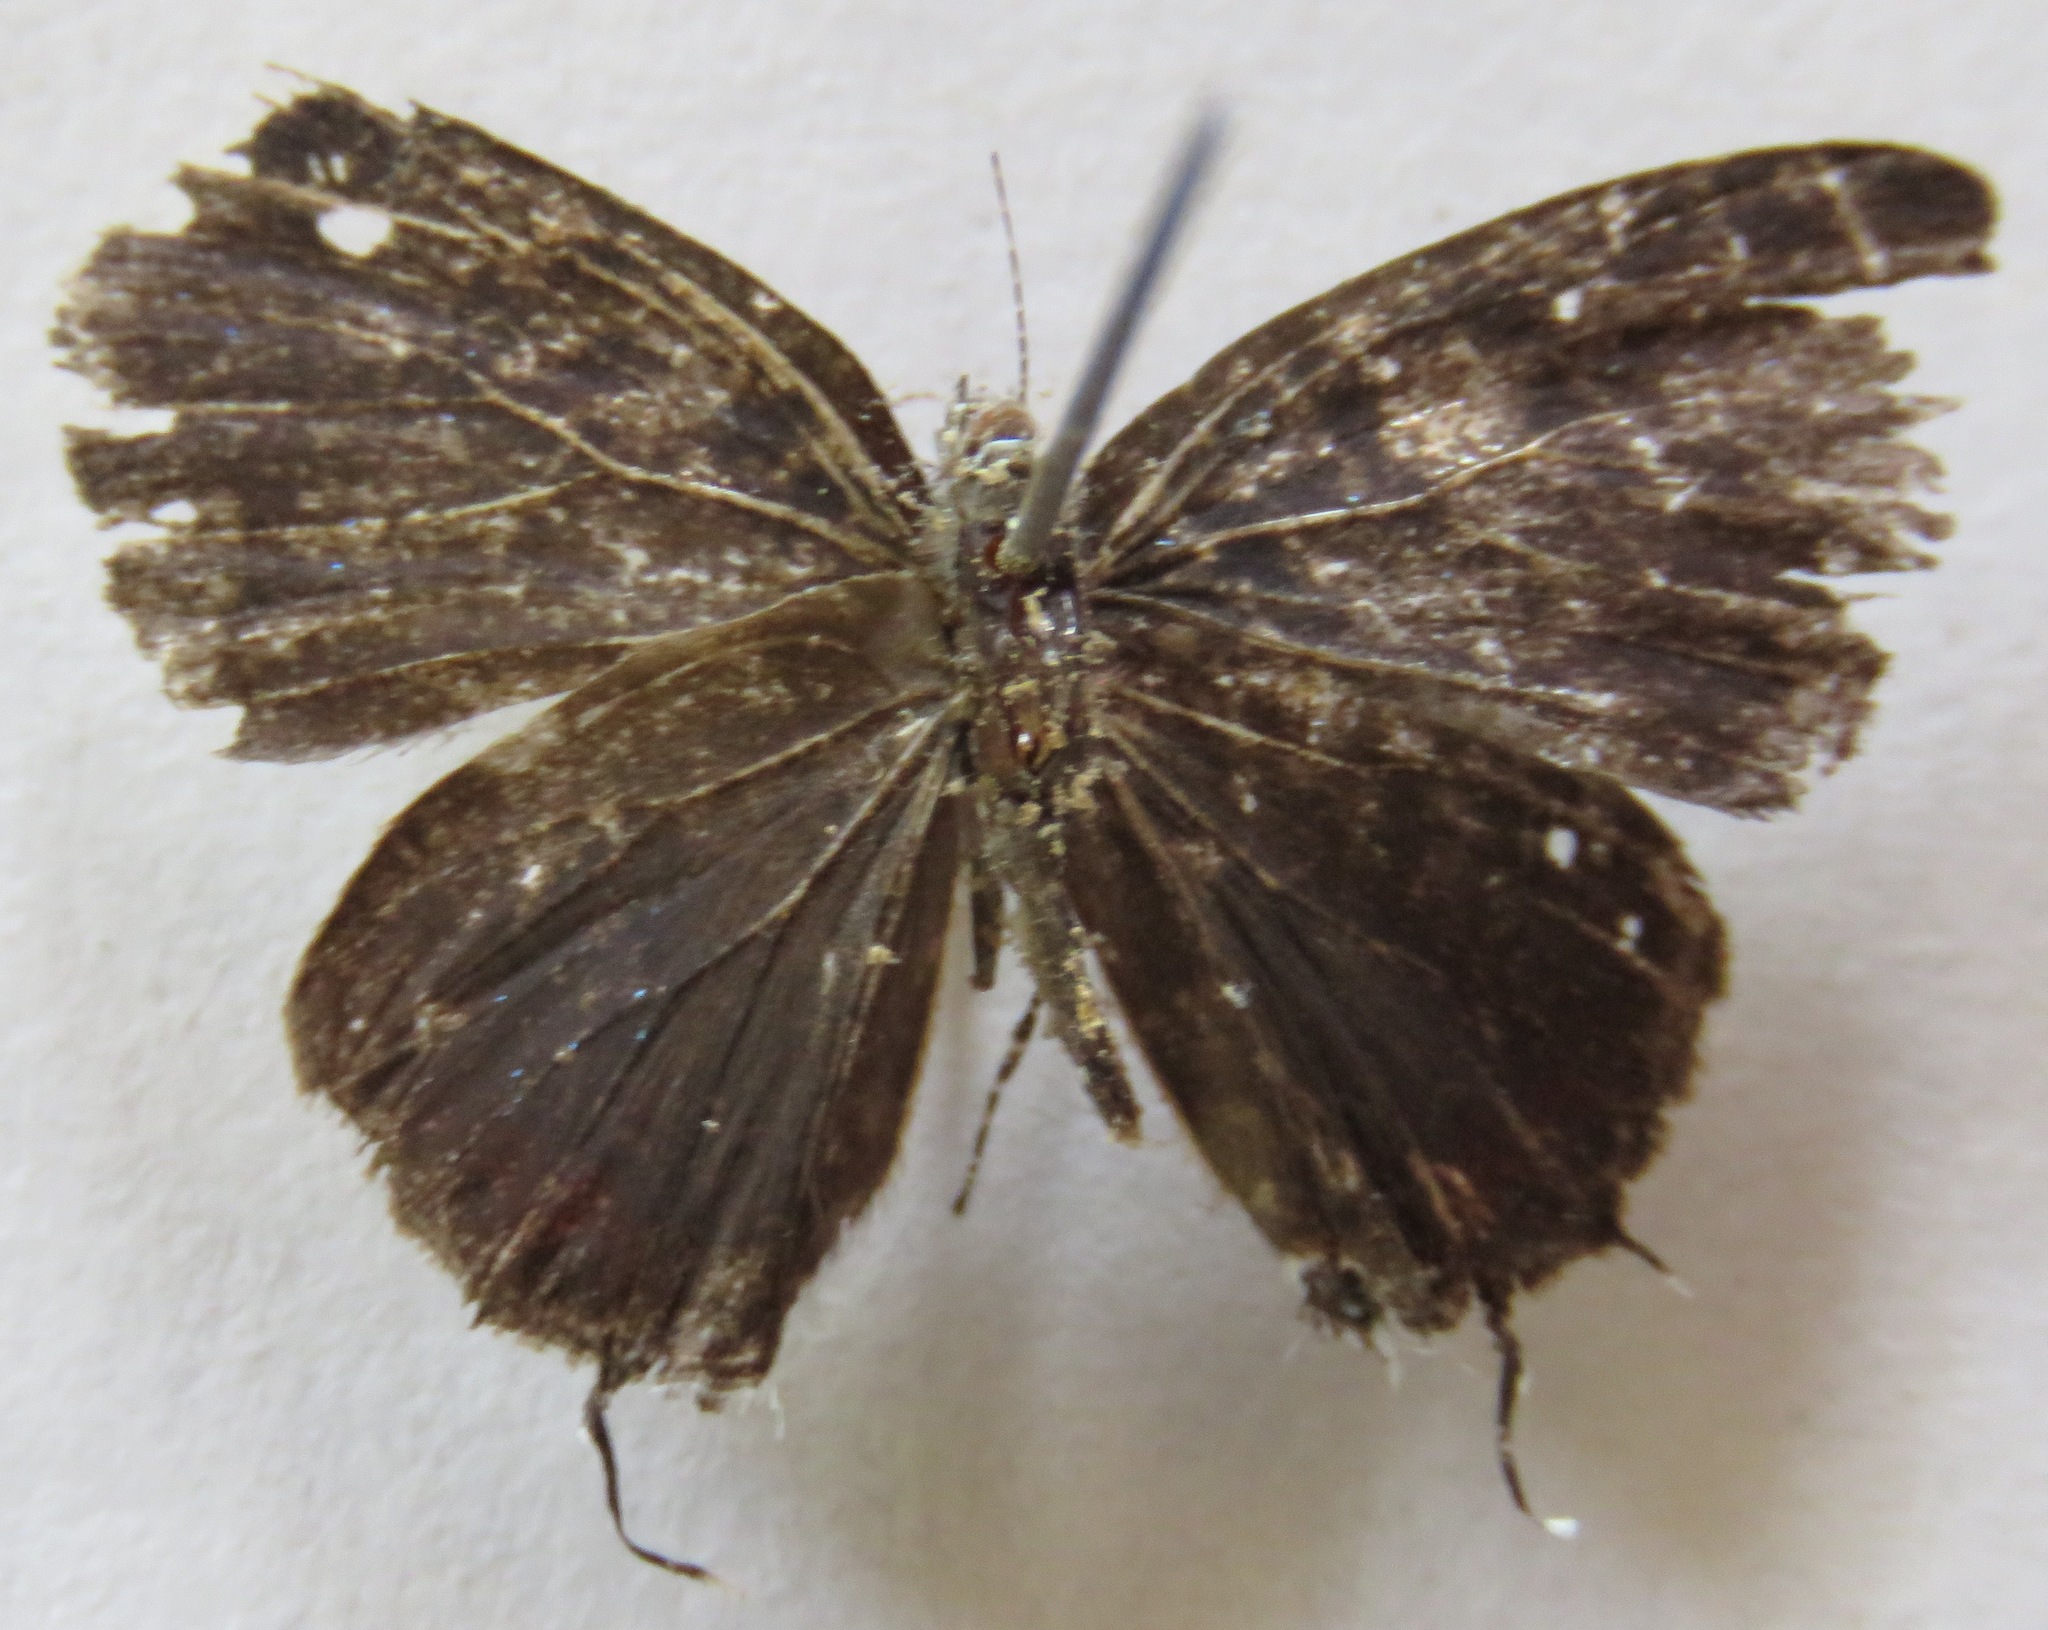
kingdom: Animalia
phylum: Arthropoda
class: Insecta
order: Lepidoptera
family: Lycaenidae
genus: Calycopis
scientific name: Calycopis pisis
